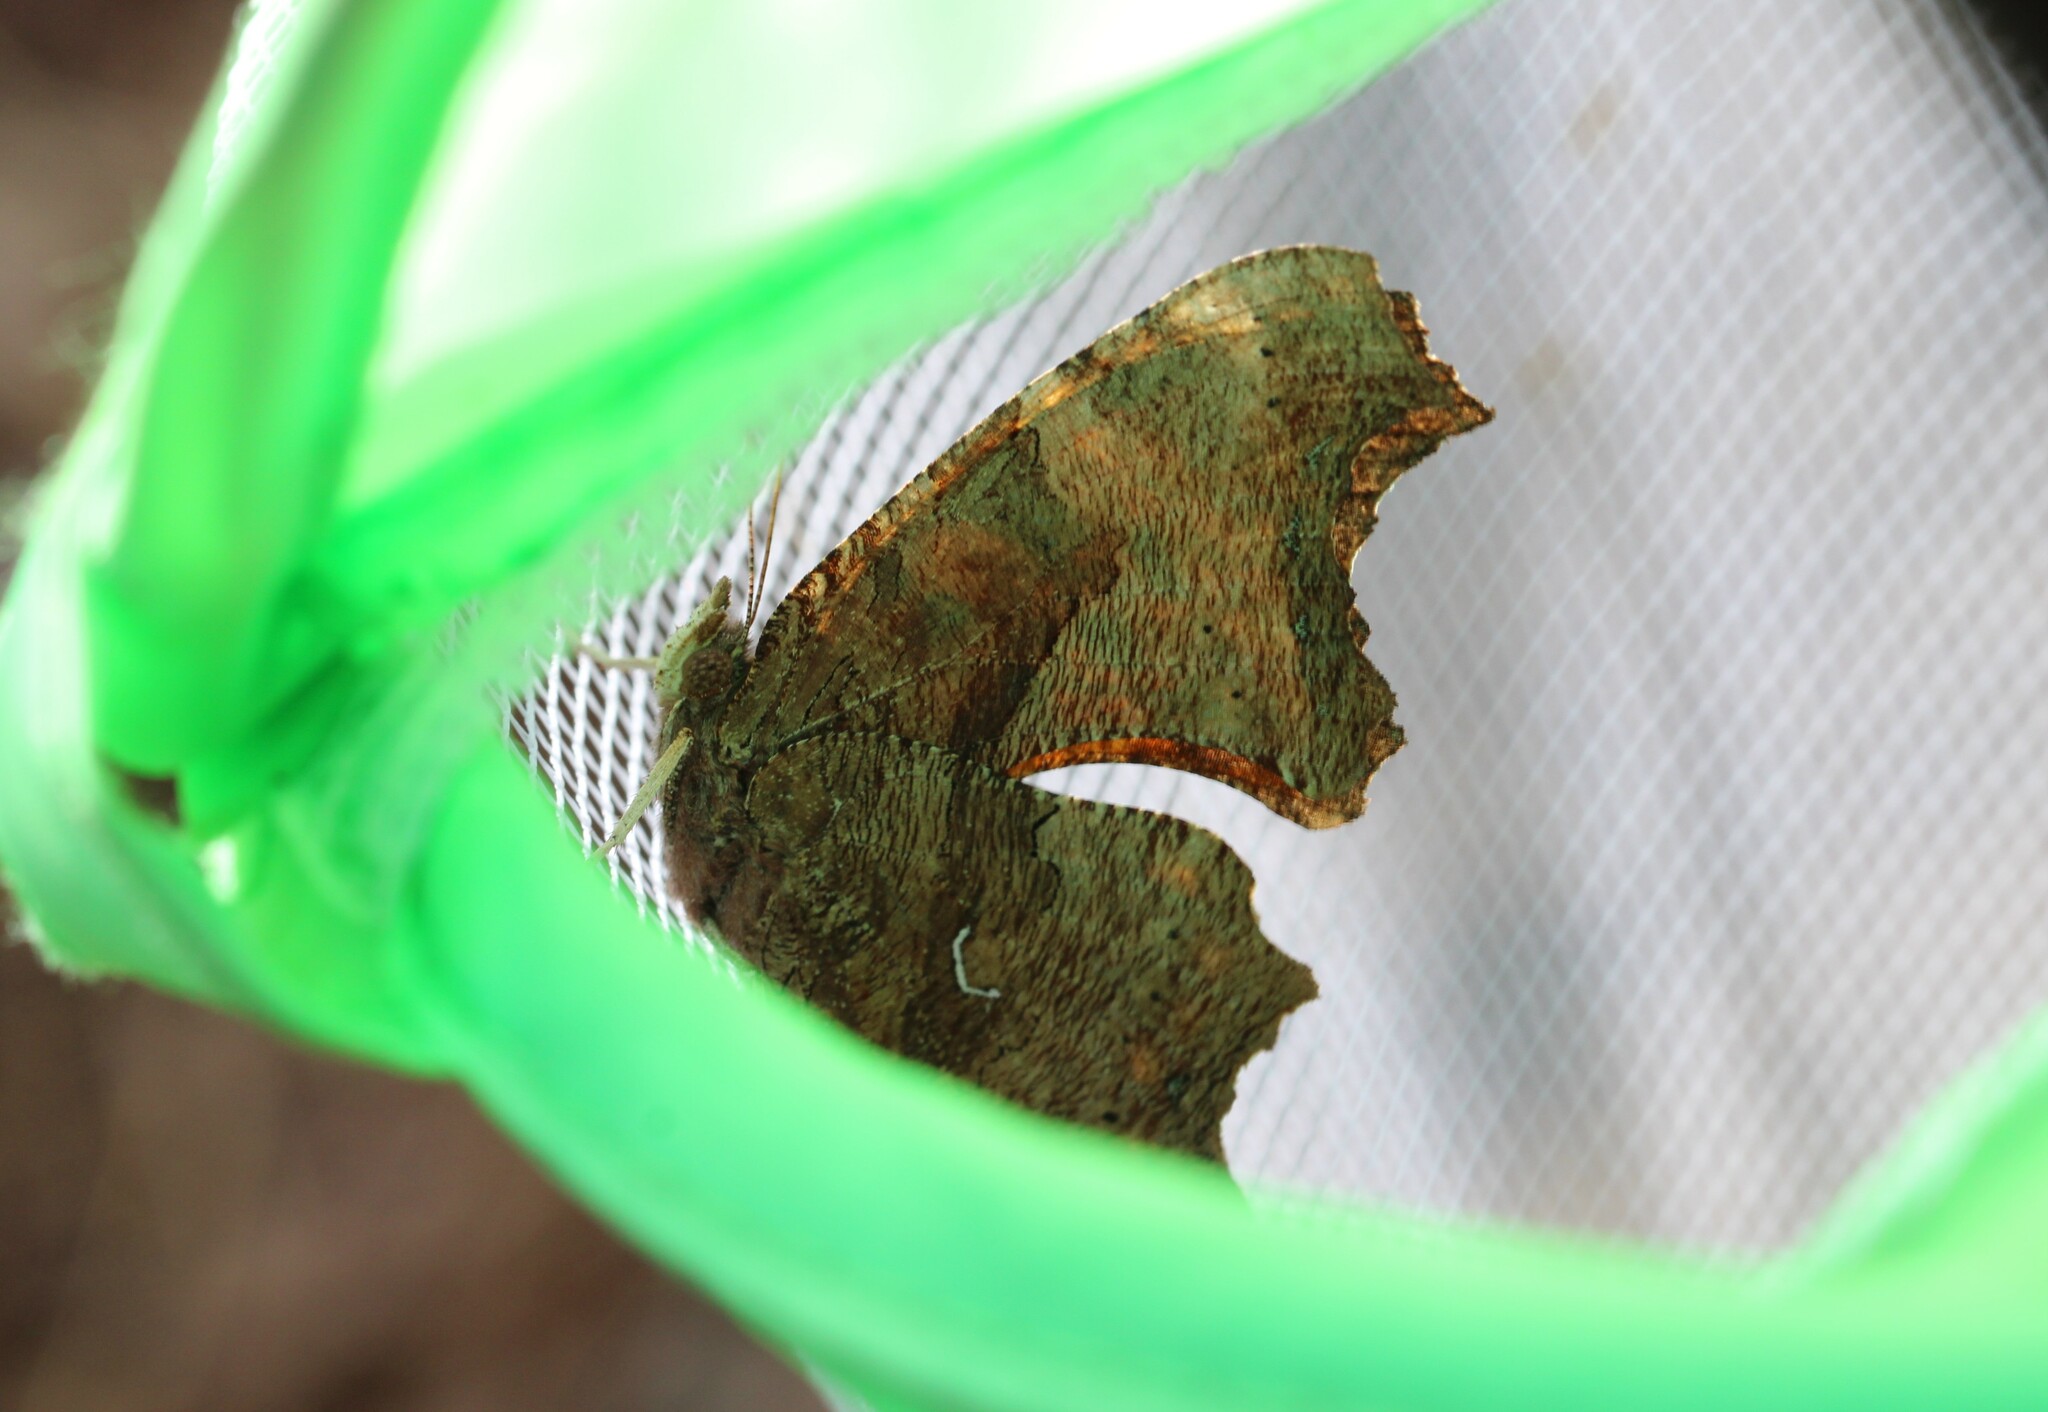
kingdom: Animalia
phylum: Arthropoda
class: Insecta
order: Lepidoptera
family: Nymphalidae
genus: Polygonia
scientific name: Polygonia comma
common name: Eastern comma
